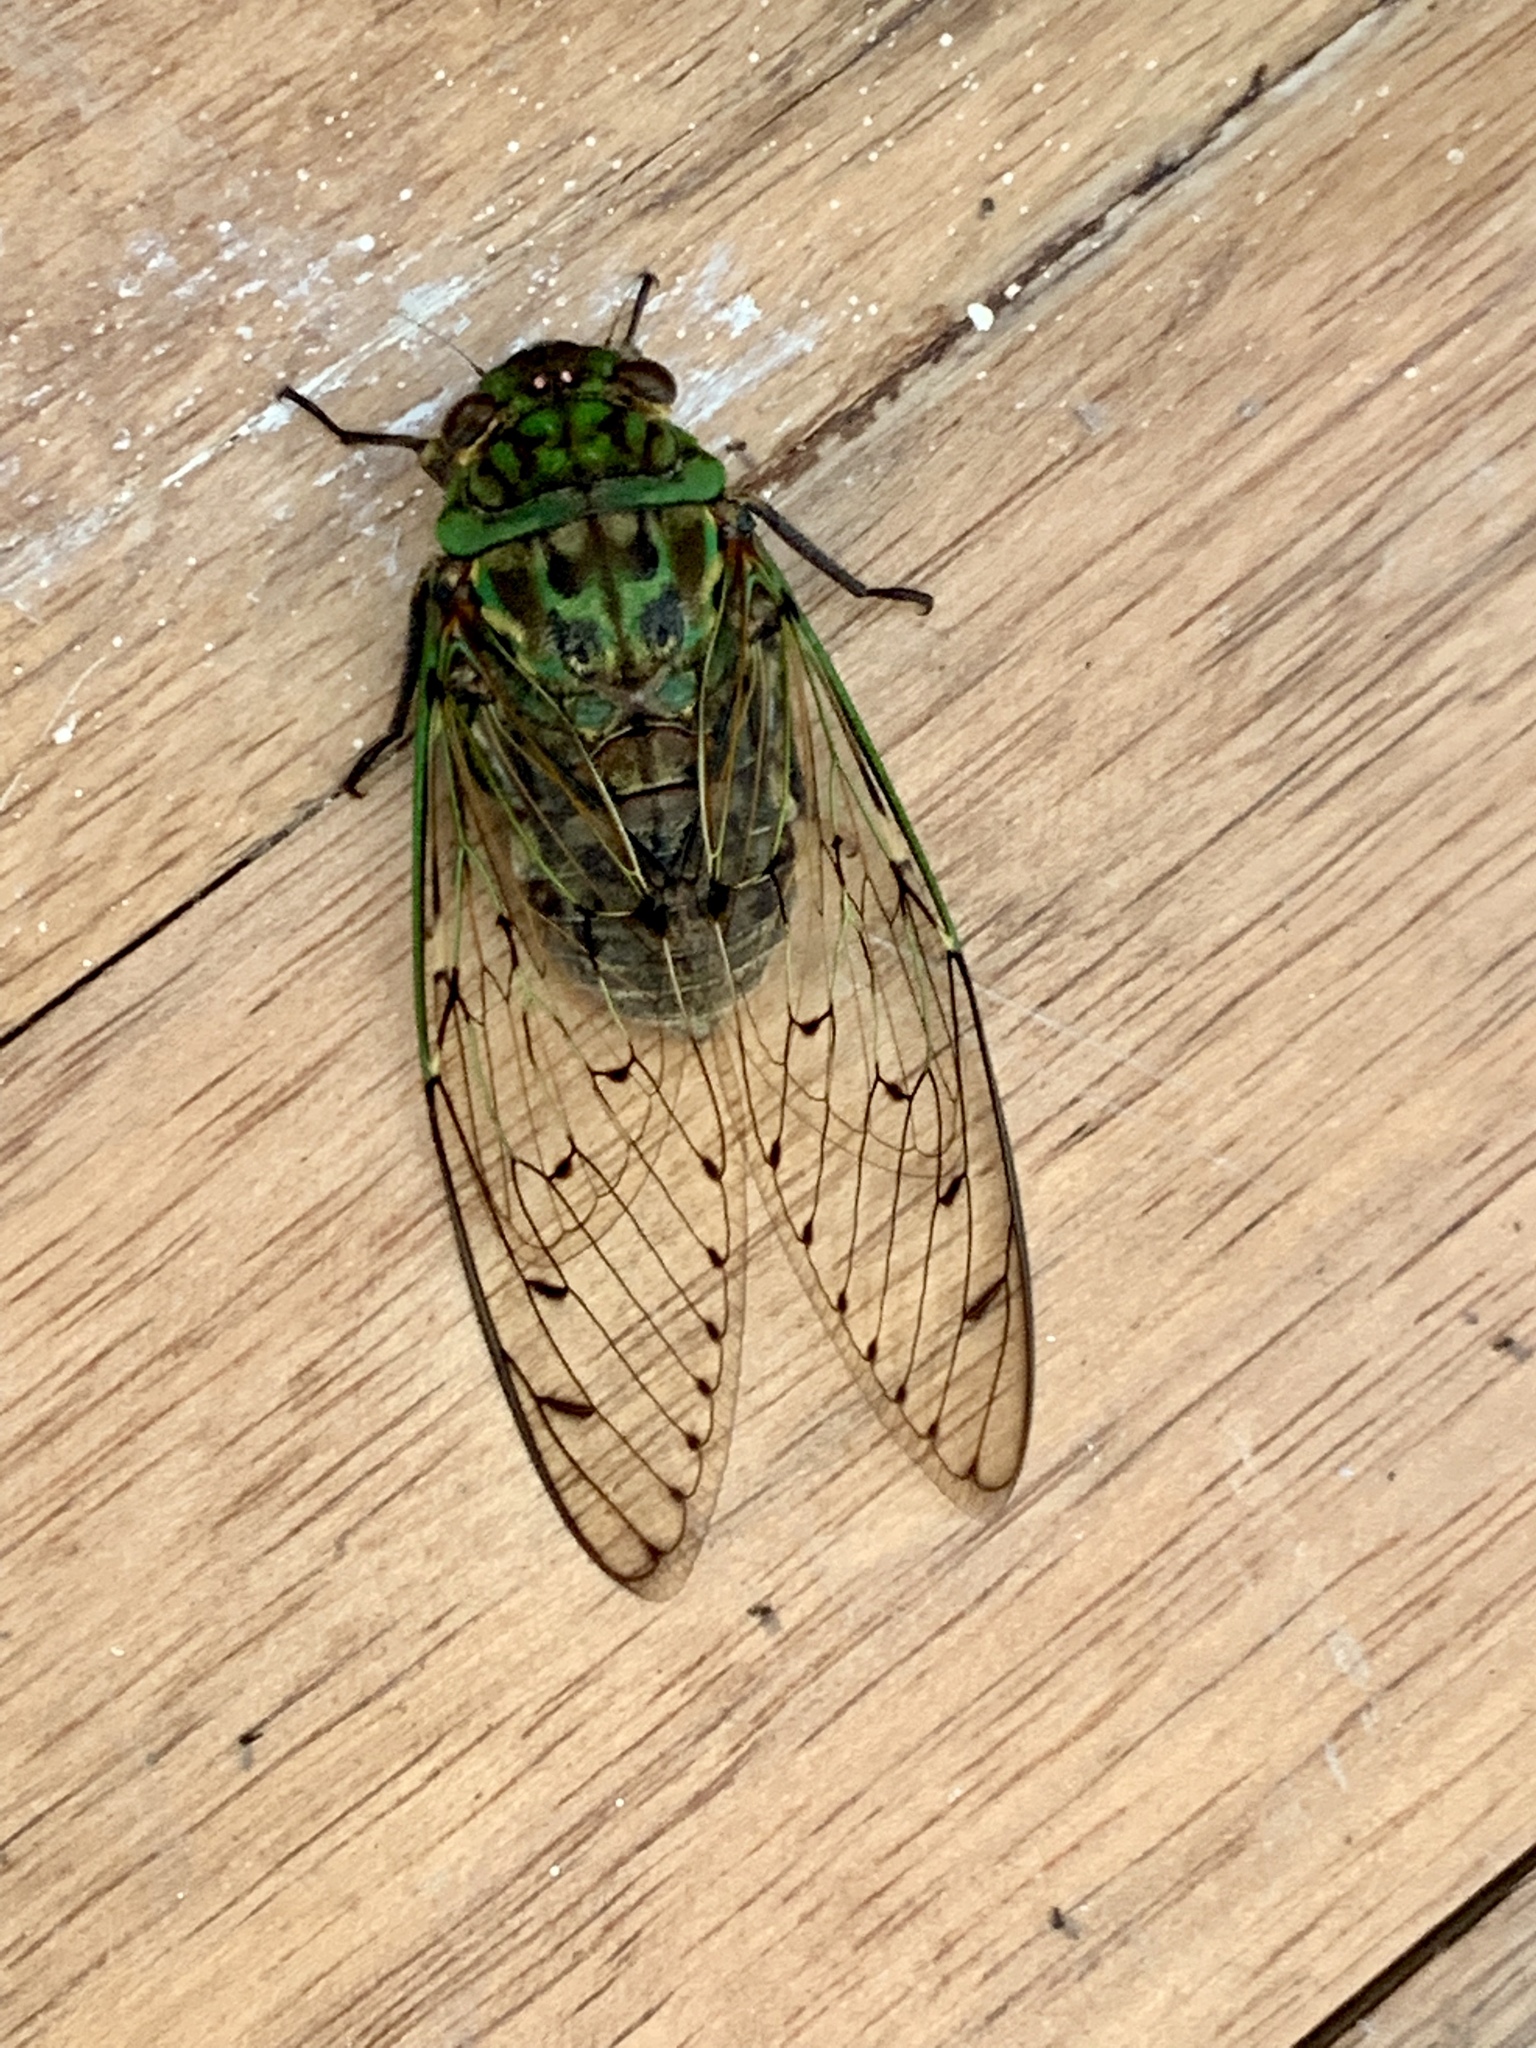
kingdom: Animalia
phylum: Arthropoda
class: Insecta
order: Hemiptera
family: Cicadidae
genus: Pomponia
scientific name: Pomponia rajah
